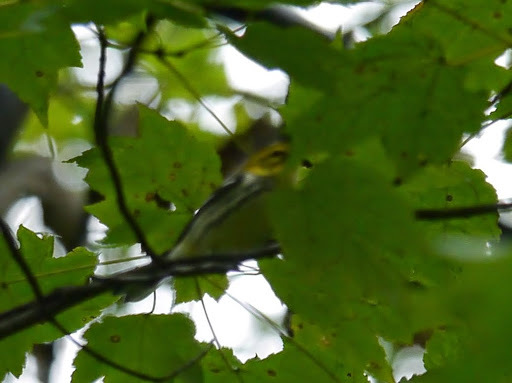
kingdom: Animalia
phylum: Chordata
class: Aves
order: Passeriformes
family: Parulidae
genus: Setophaga
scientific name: Setophaga virens
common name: Black-throated green warbler
